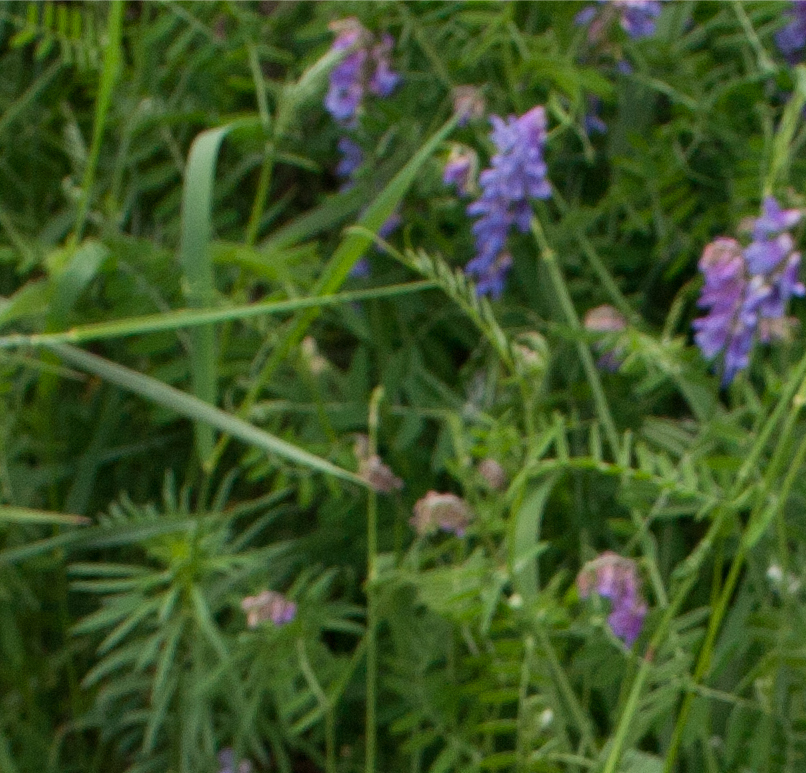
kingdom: Plantae
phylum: Tracheophyta
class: Magnoliopsida
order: Fabales
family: Fabaceae
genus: Vicia
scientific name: Vicia cracca
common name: Bird vetch
